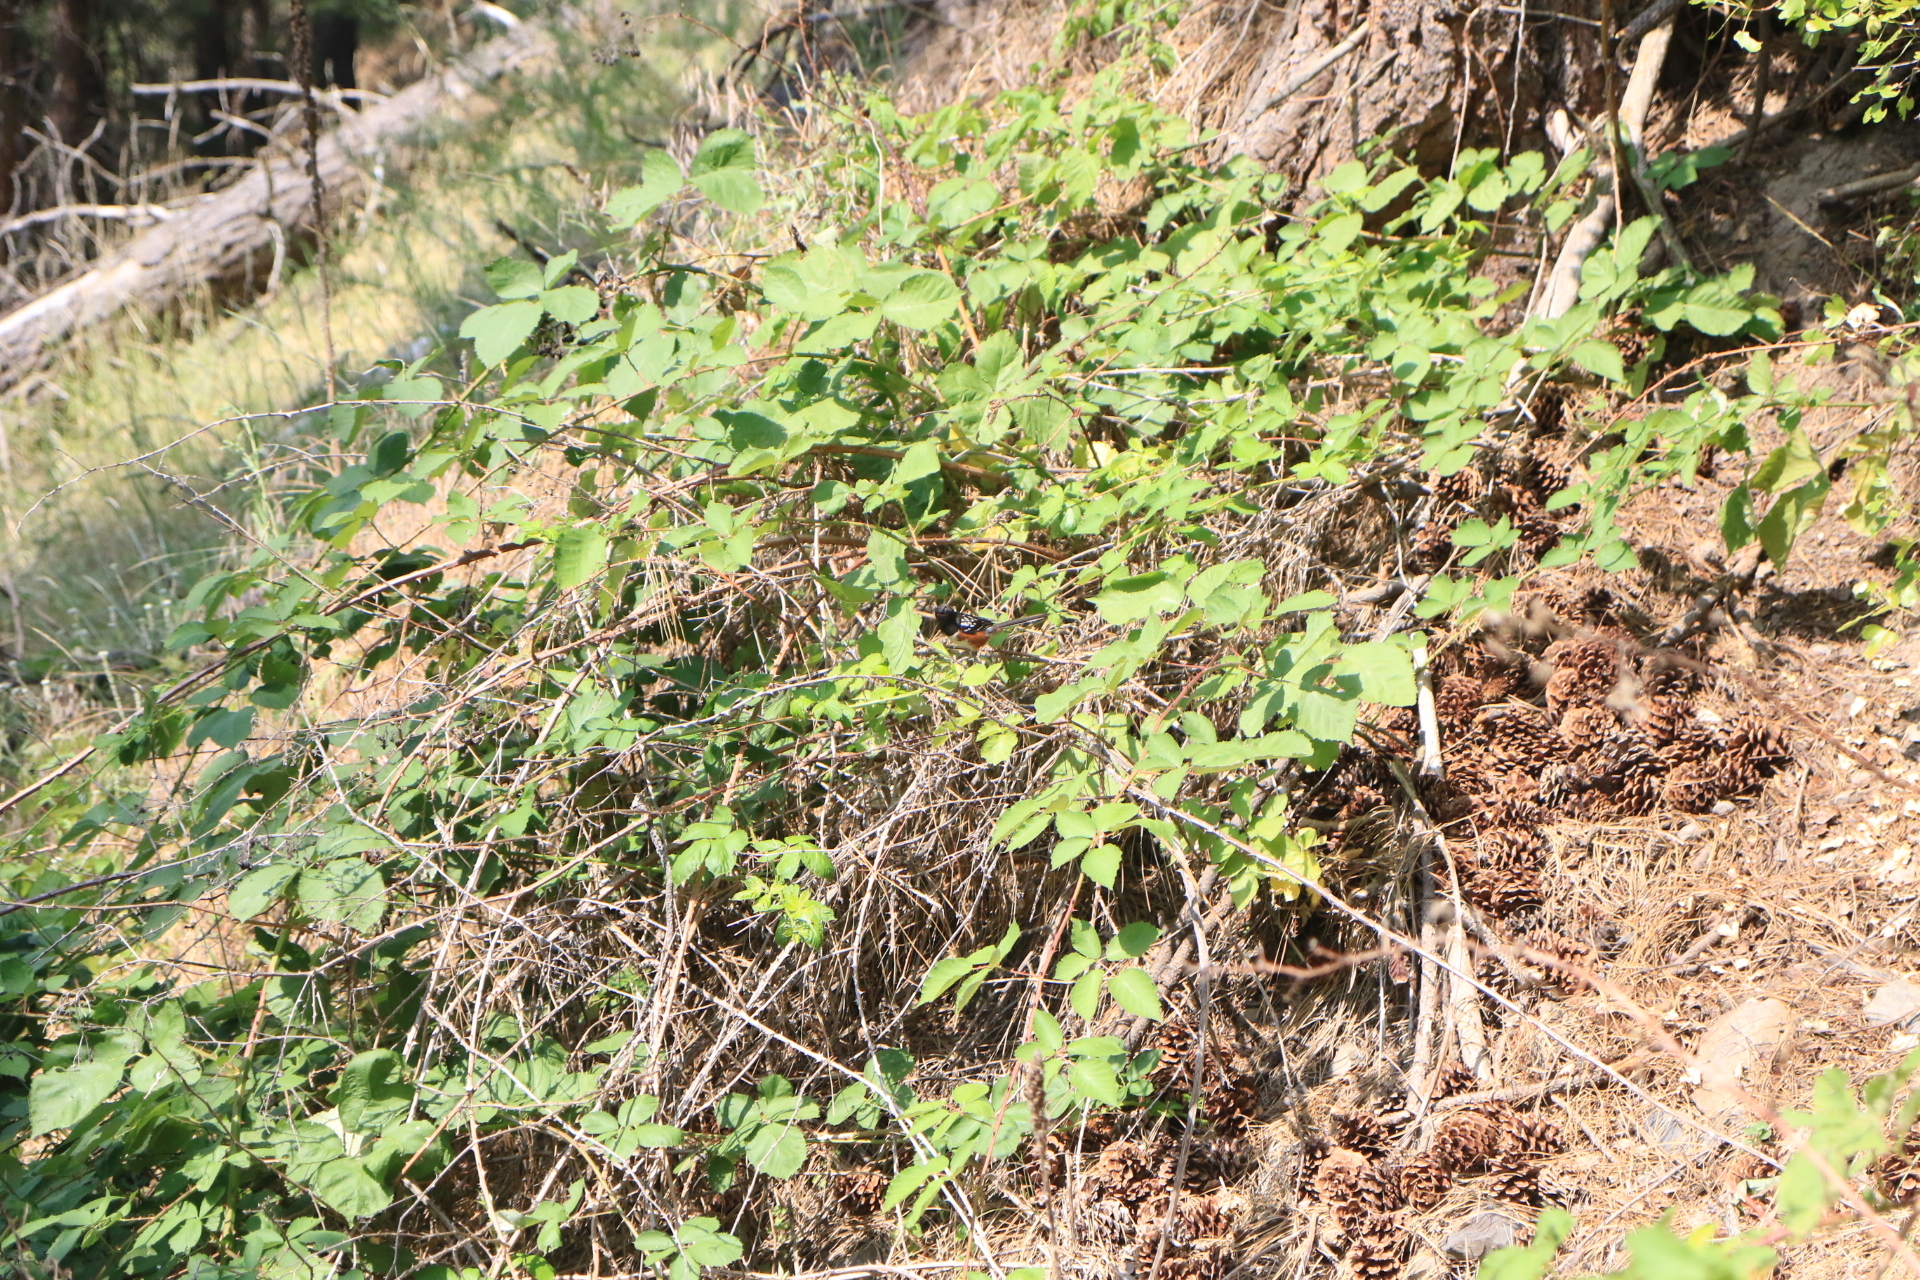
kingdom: Animalia
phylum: Chordata
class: Aves
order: Passeriformes
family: Passerellidae
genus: Pipilo
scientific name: Pipilo maculatus
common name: Spotted towhee
